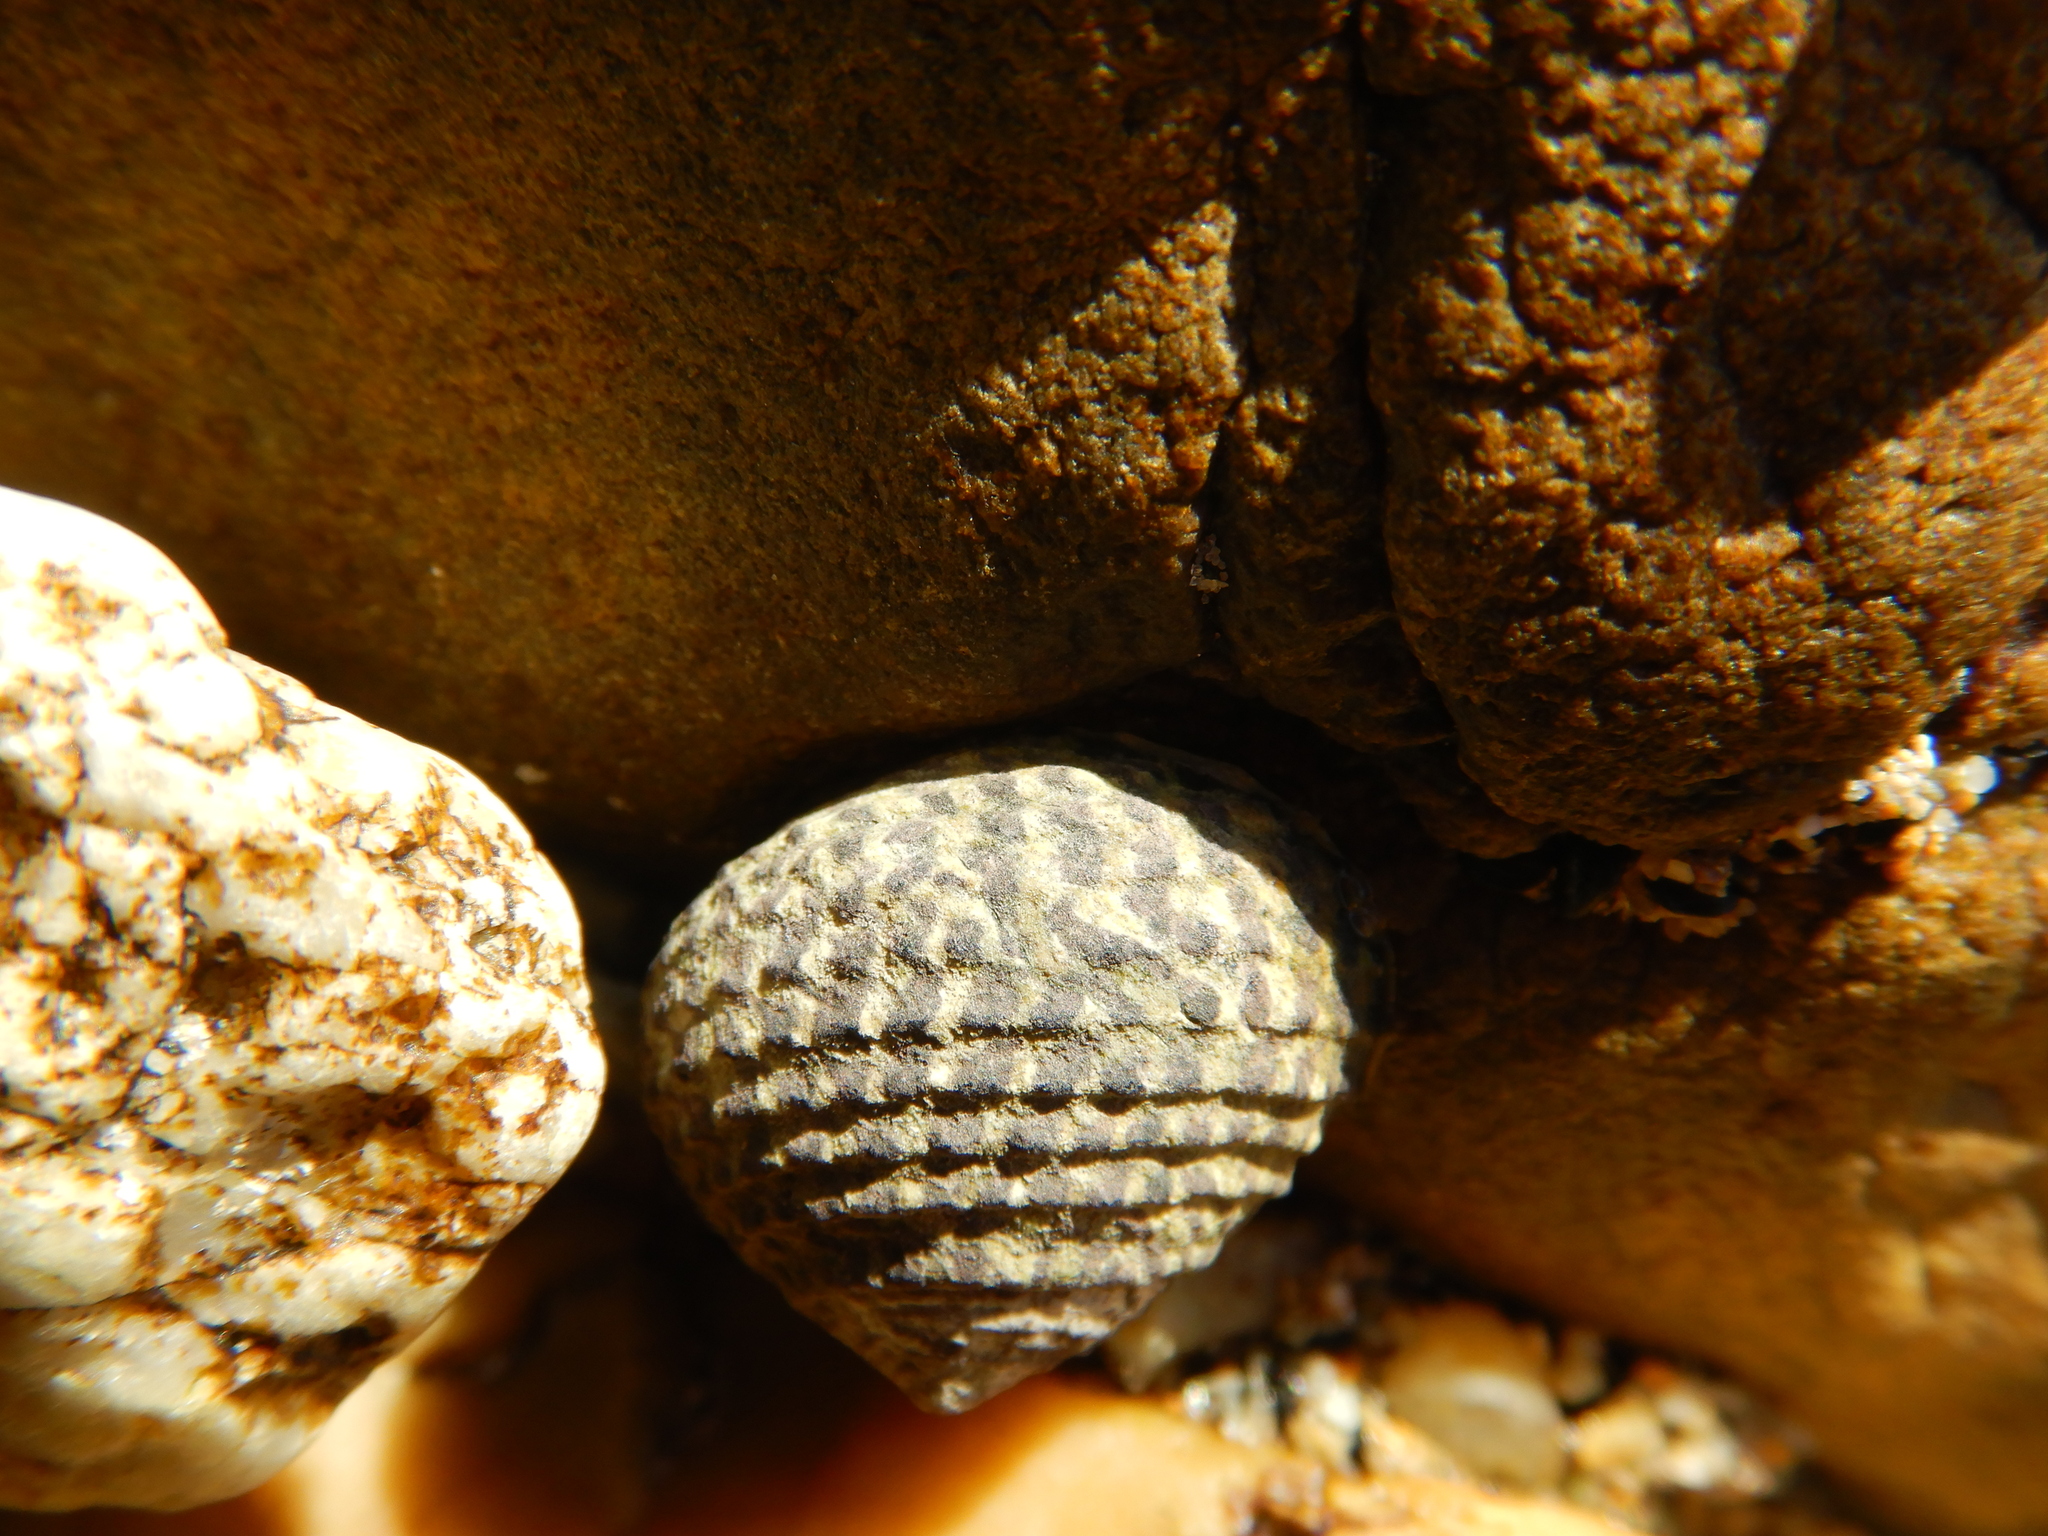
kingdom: Animalia
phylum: Mollusca
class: Gastropoda
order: Trochida
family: Trochidae
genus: Diloma
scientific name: Diloma concameratum
